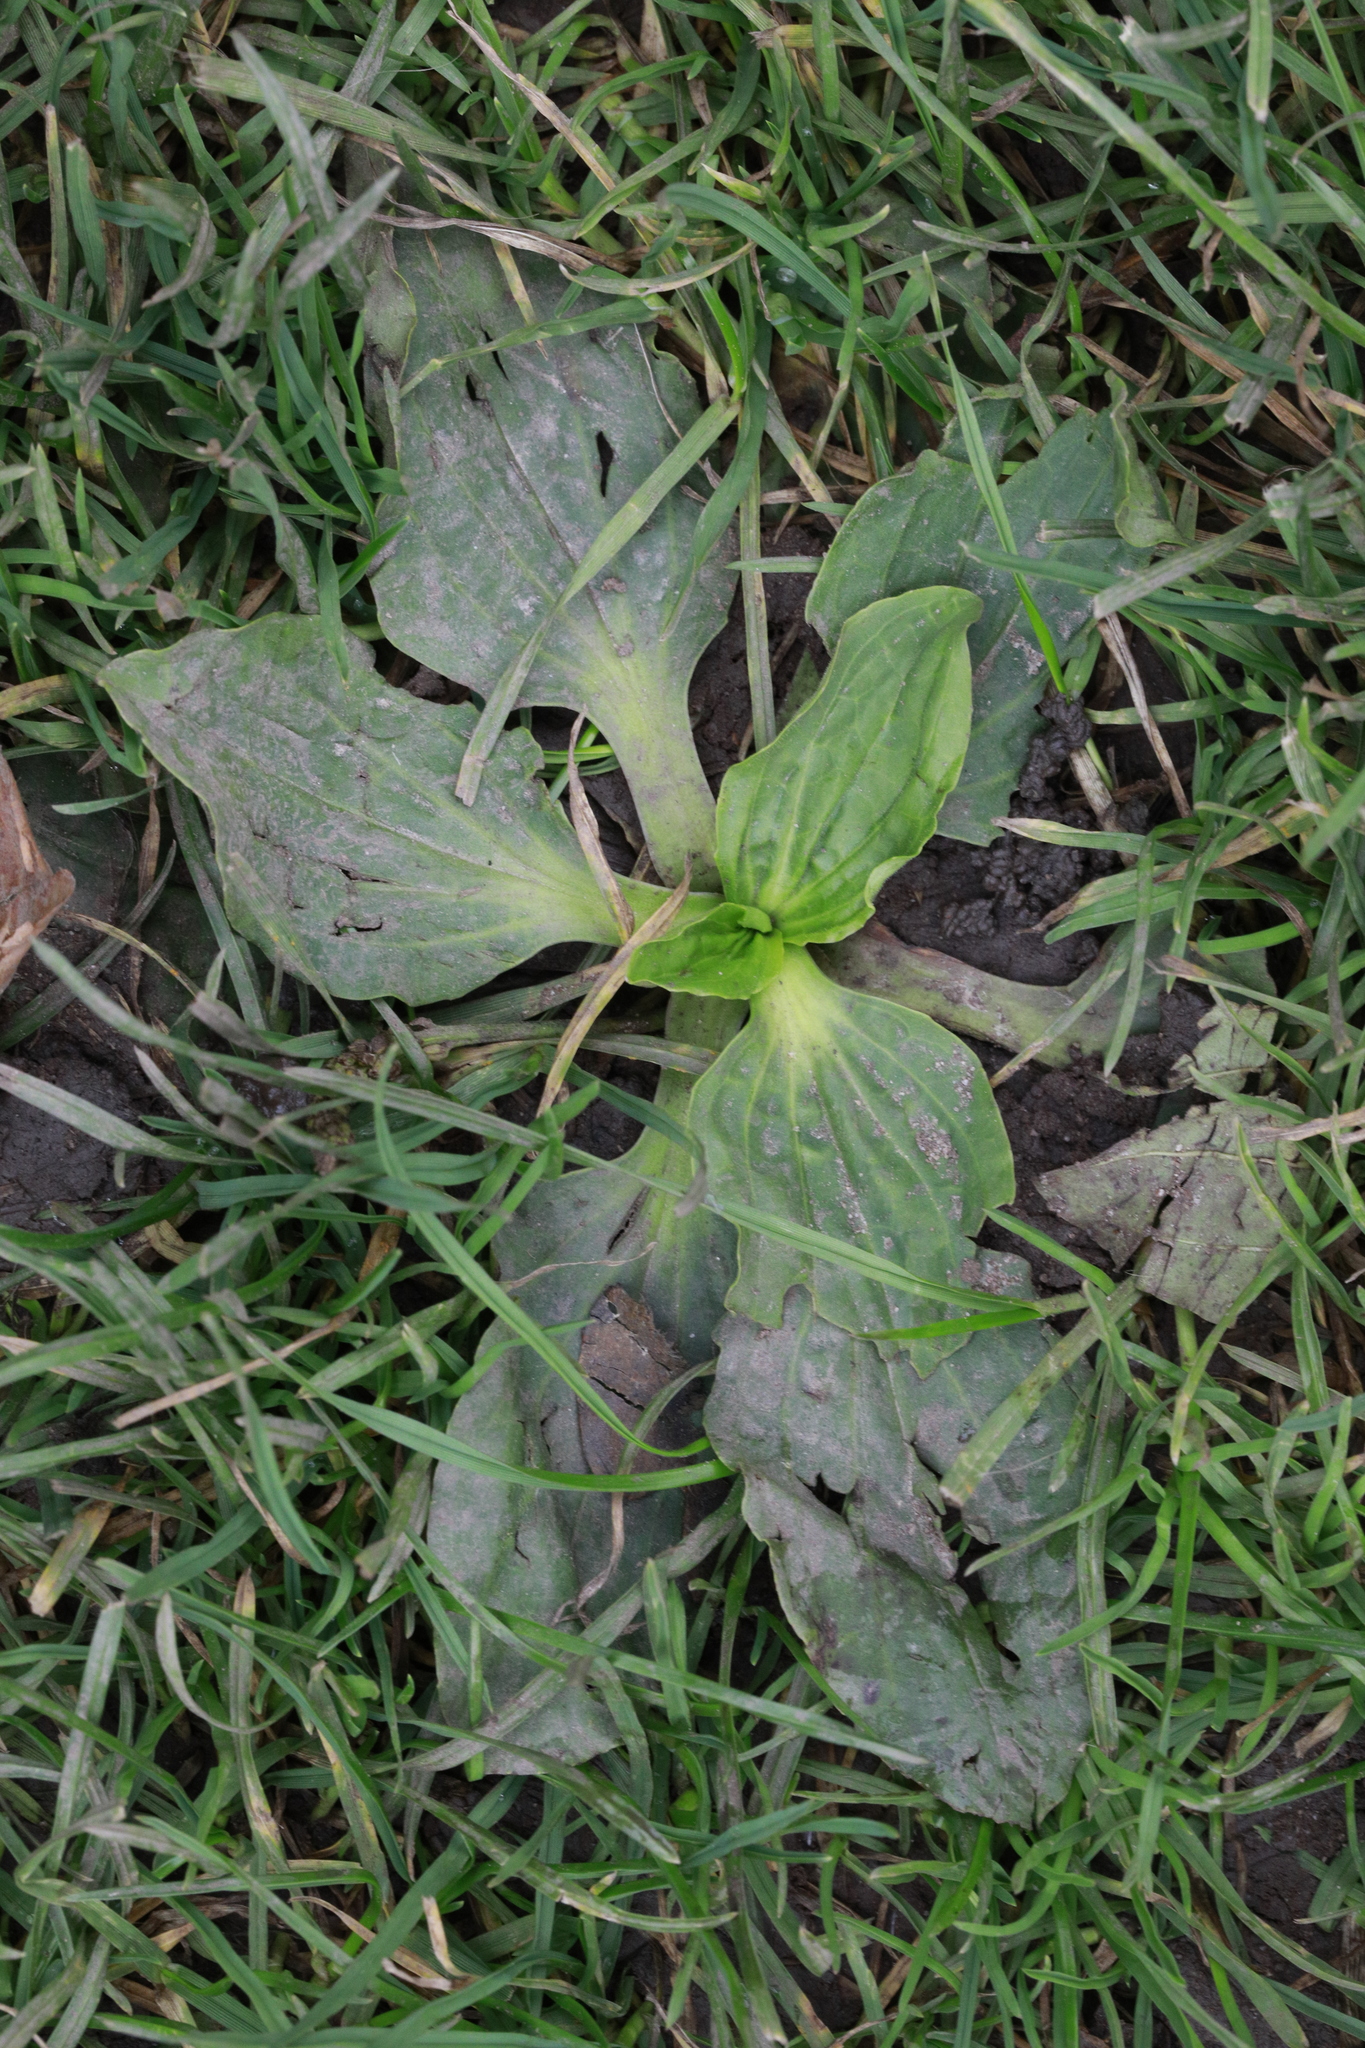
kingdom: Plantae
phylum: Tracheophyta
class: Magnoliopsida
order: Lamiales
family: Plantaginaceae
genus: Plantago
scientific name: Plantago major
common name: Common plantain
